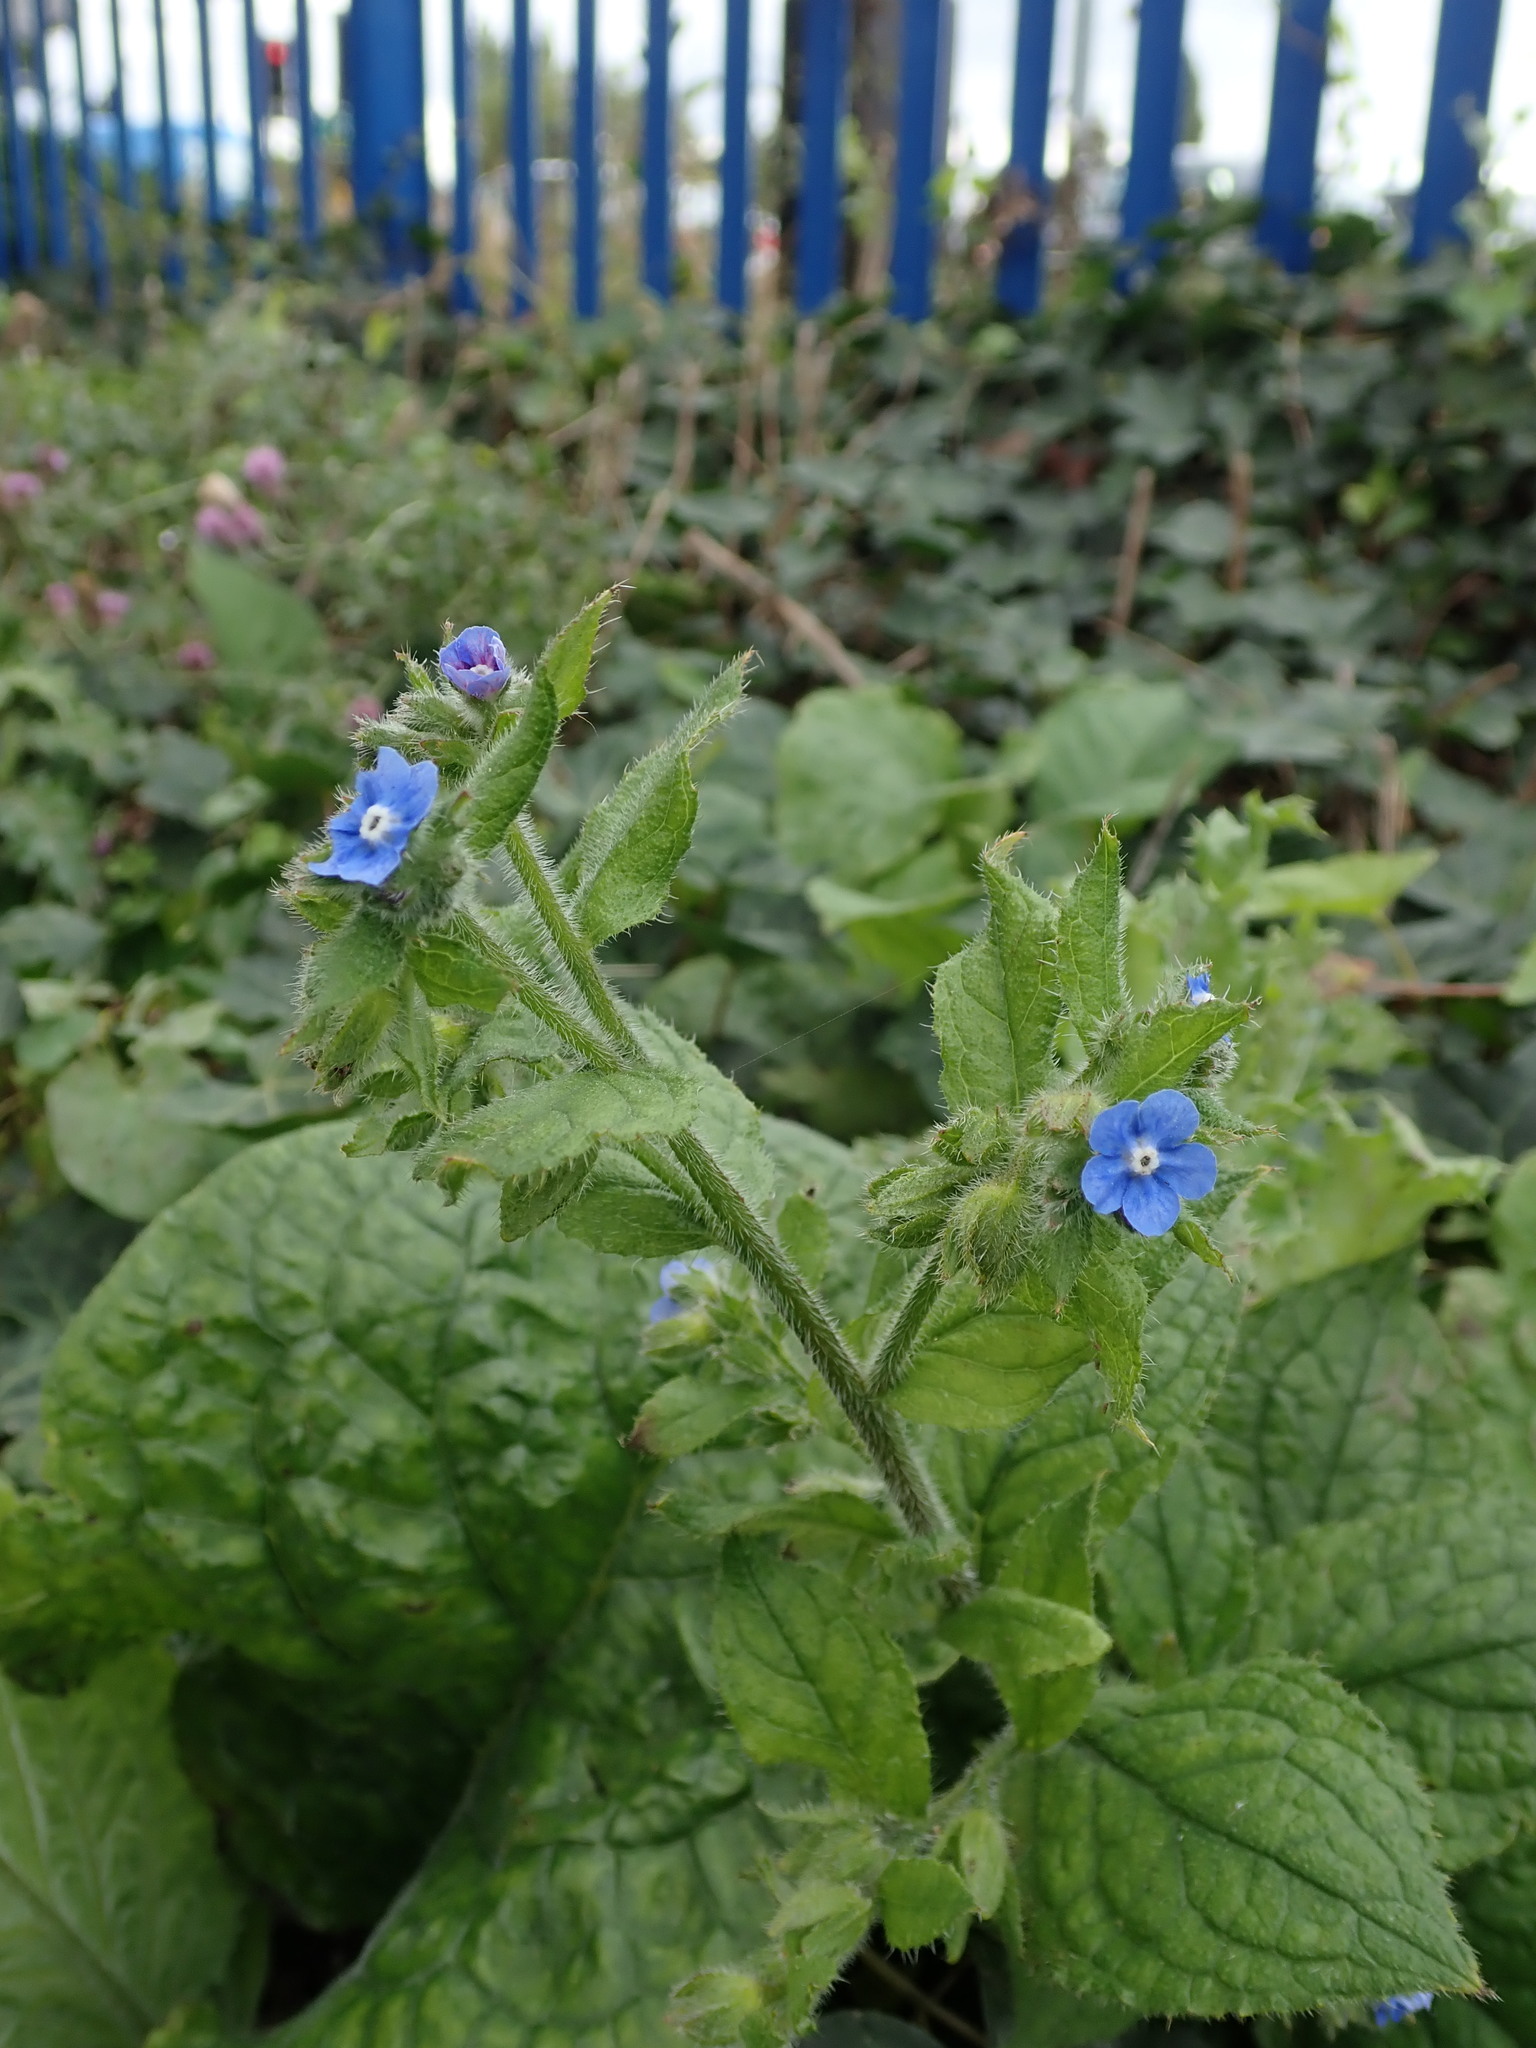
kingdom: Plantae
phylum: Tracheophyta
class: Magnoliopsida
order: Boraginales
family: Boraginaceae
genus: Pentaglottis
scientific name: Pentaglottis sempervirens
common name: Green alkanet
